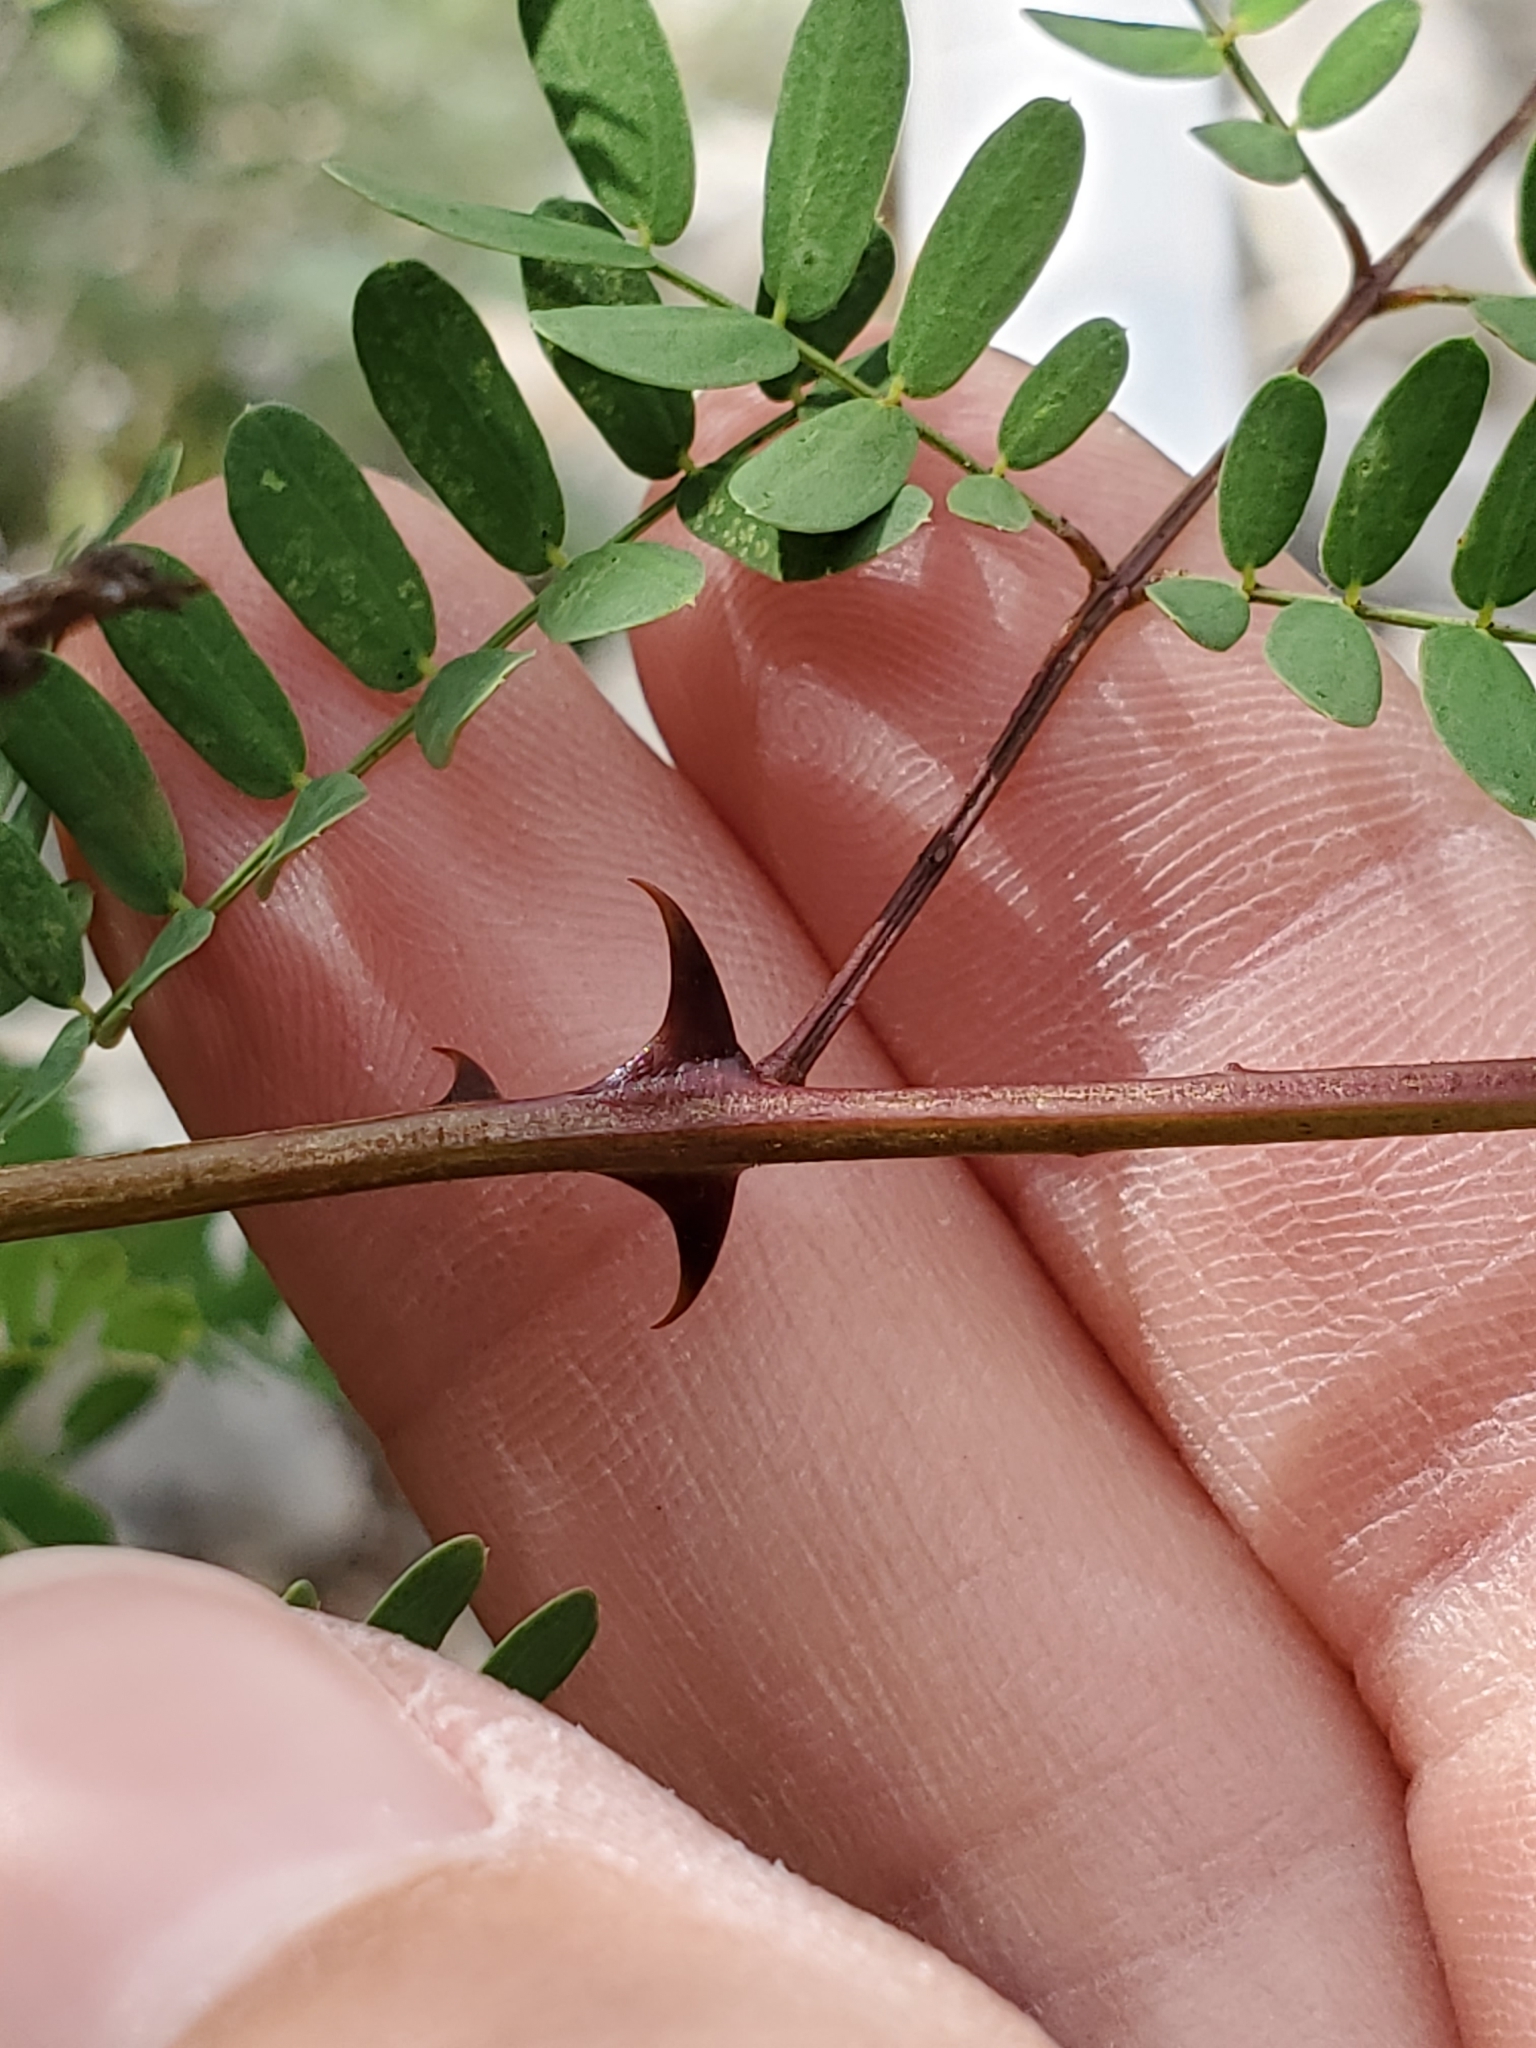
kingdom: Plantae
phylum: Tracheophyta
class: Magnoliopsida
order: Fabales
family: Fabaceae
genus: Senegalia
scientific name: Senegalia roemeriana
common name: Roemer's acacia
